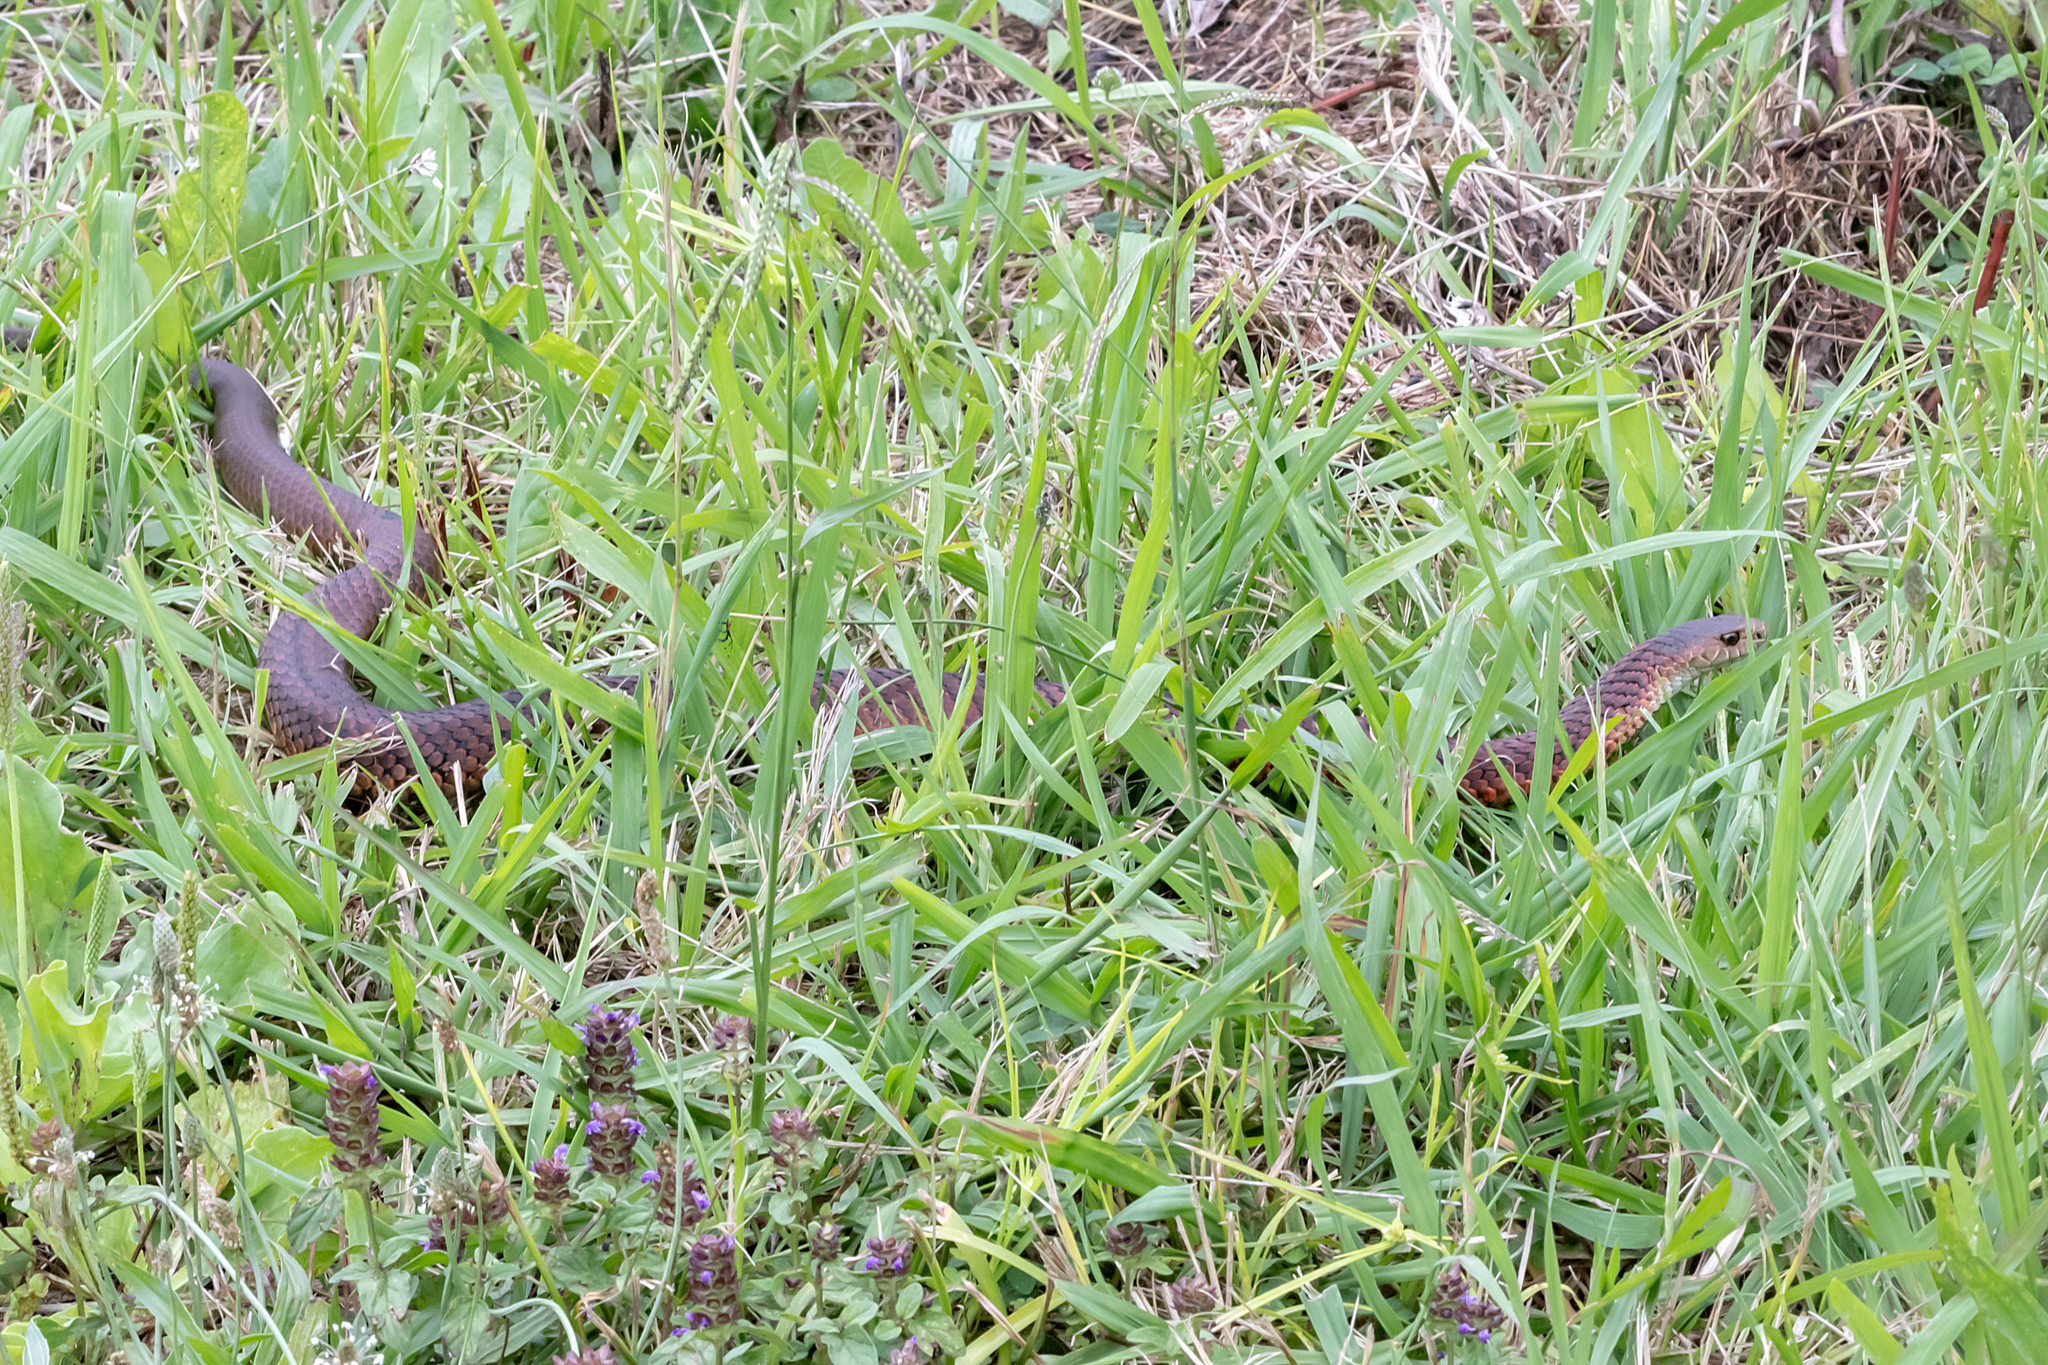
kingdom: Animalia
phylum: Chordata
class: Squamata
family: Elapidae
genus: Austrelaps
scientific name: Austrelaps superbus
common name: Copperhead snake
